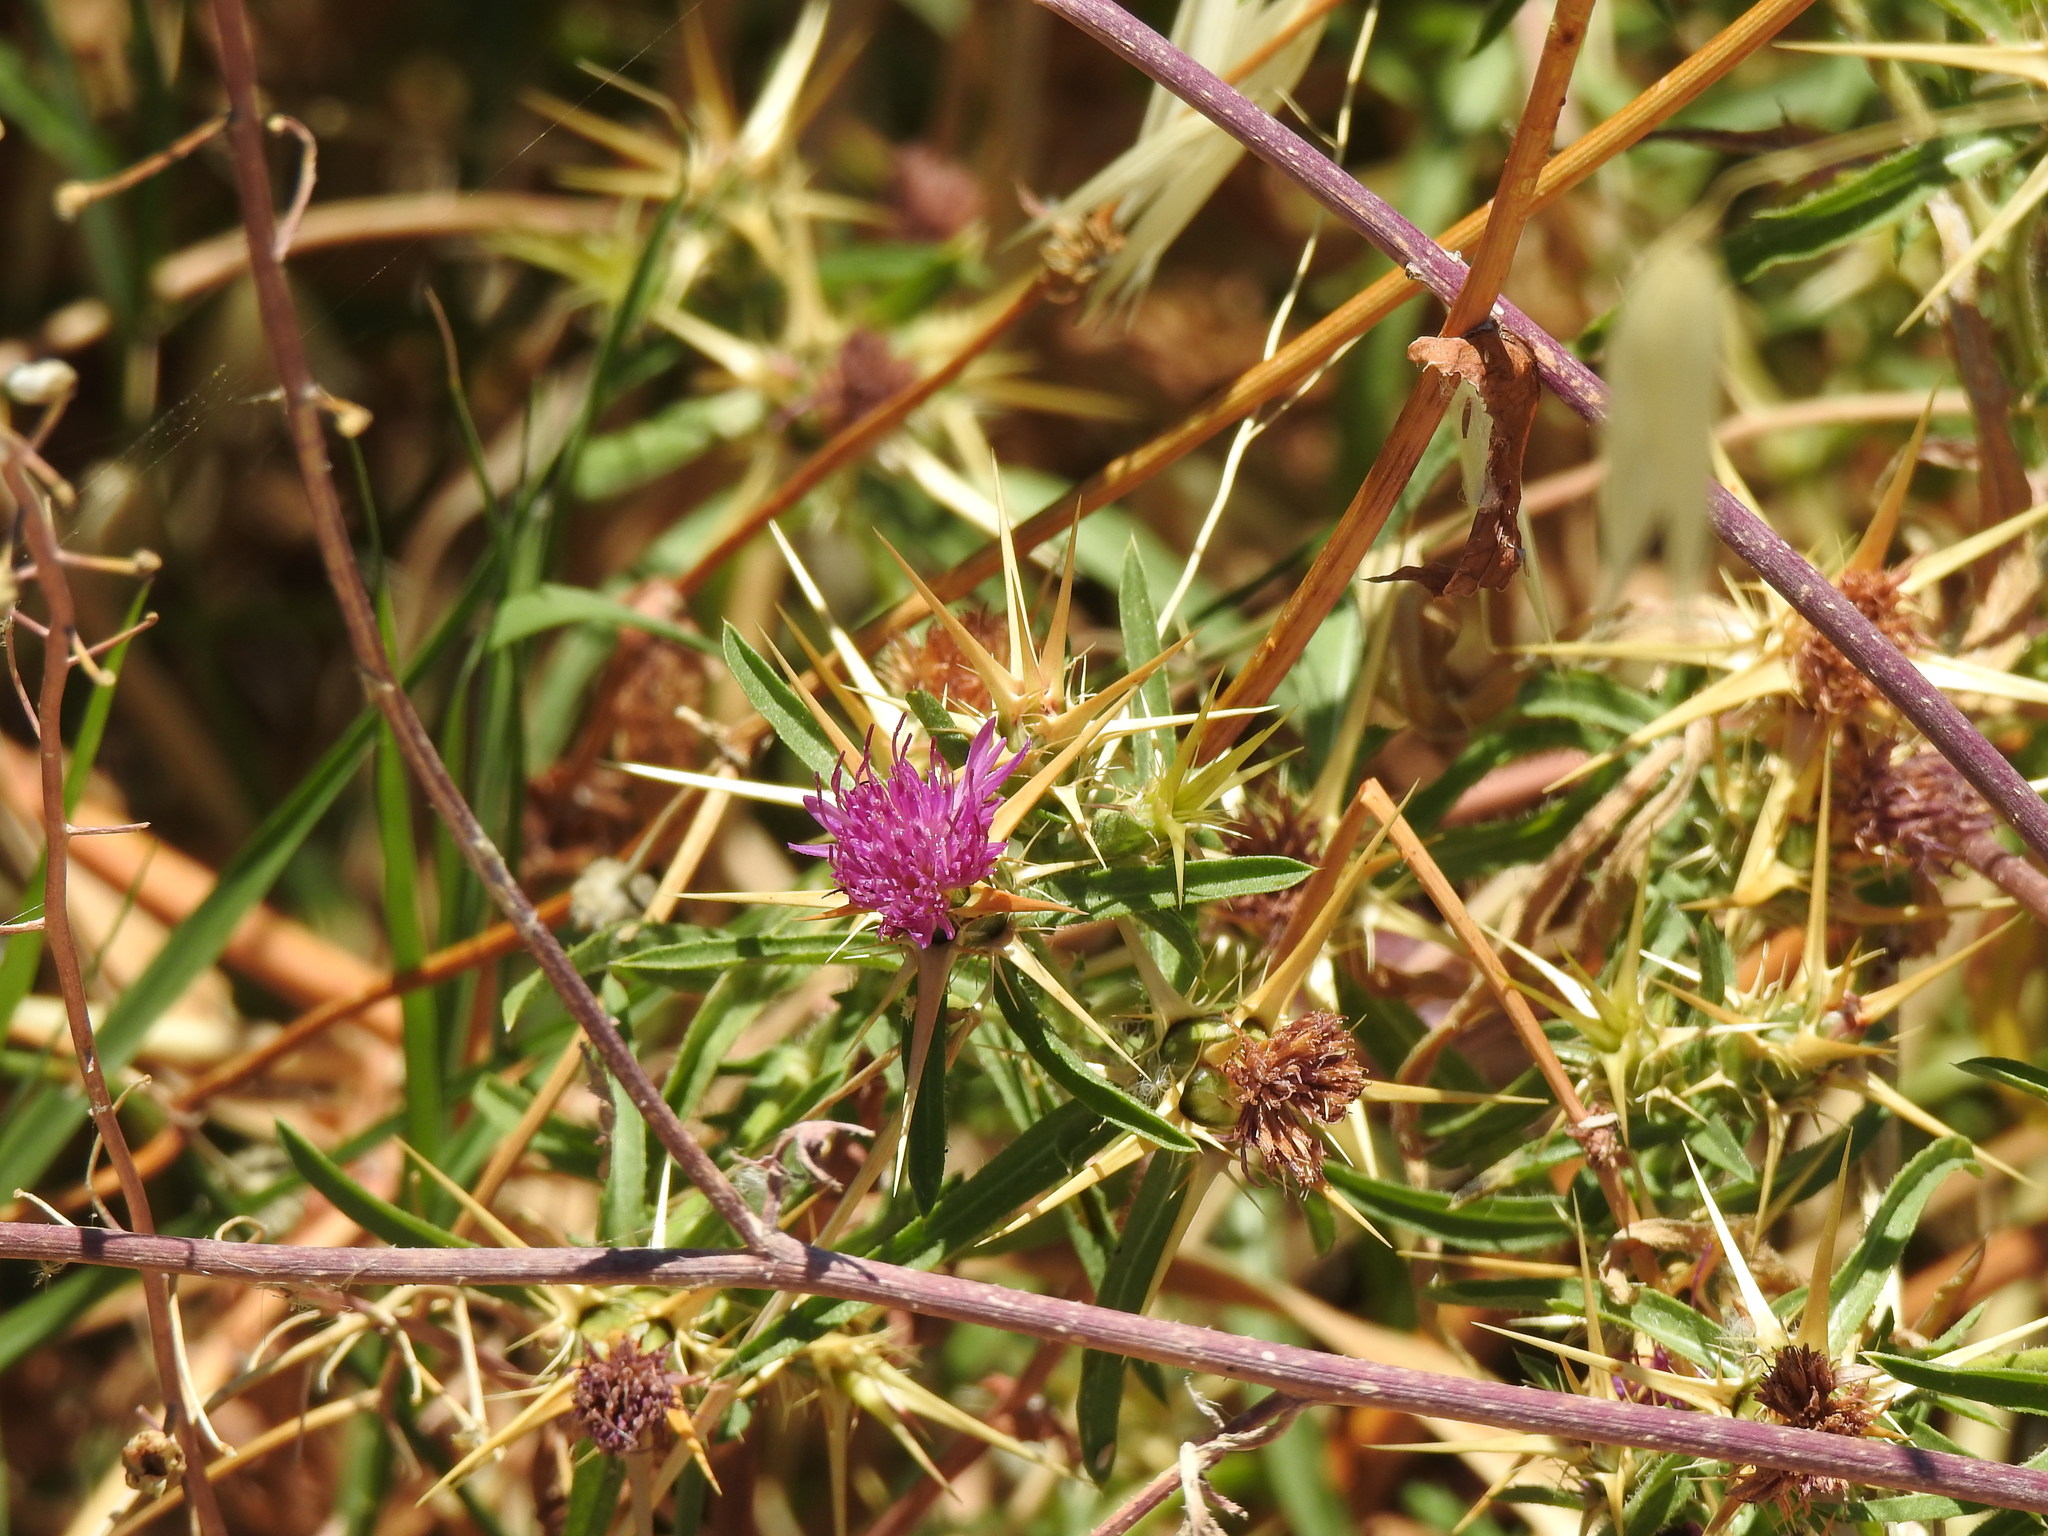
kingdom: Plantae
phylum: Tracheophyta
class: Magnoliopsida
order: Asterales
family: Asteraceae
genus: Centaurea
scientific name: Centaurea calcitrapa
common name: Red star-thistle
